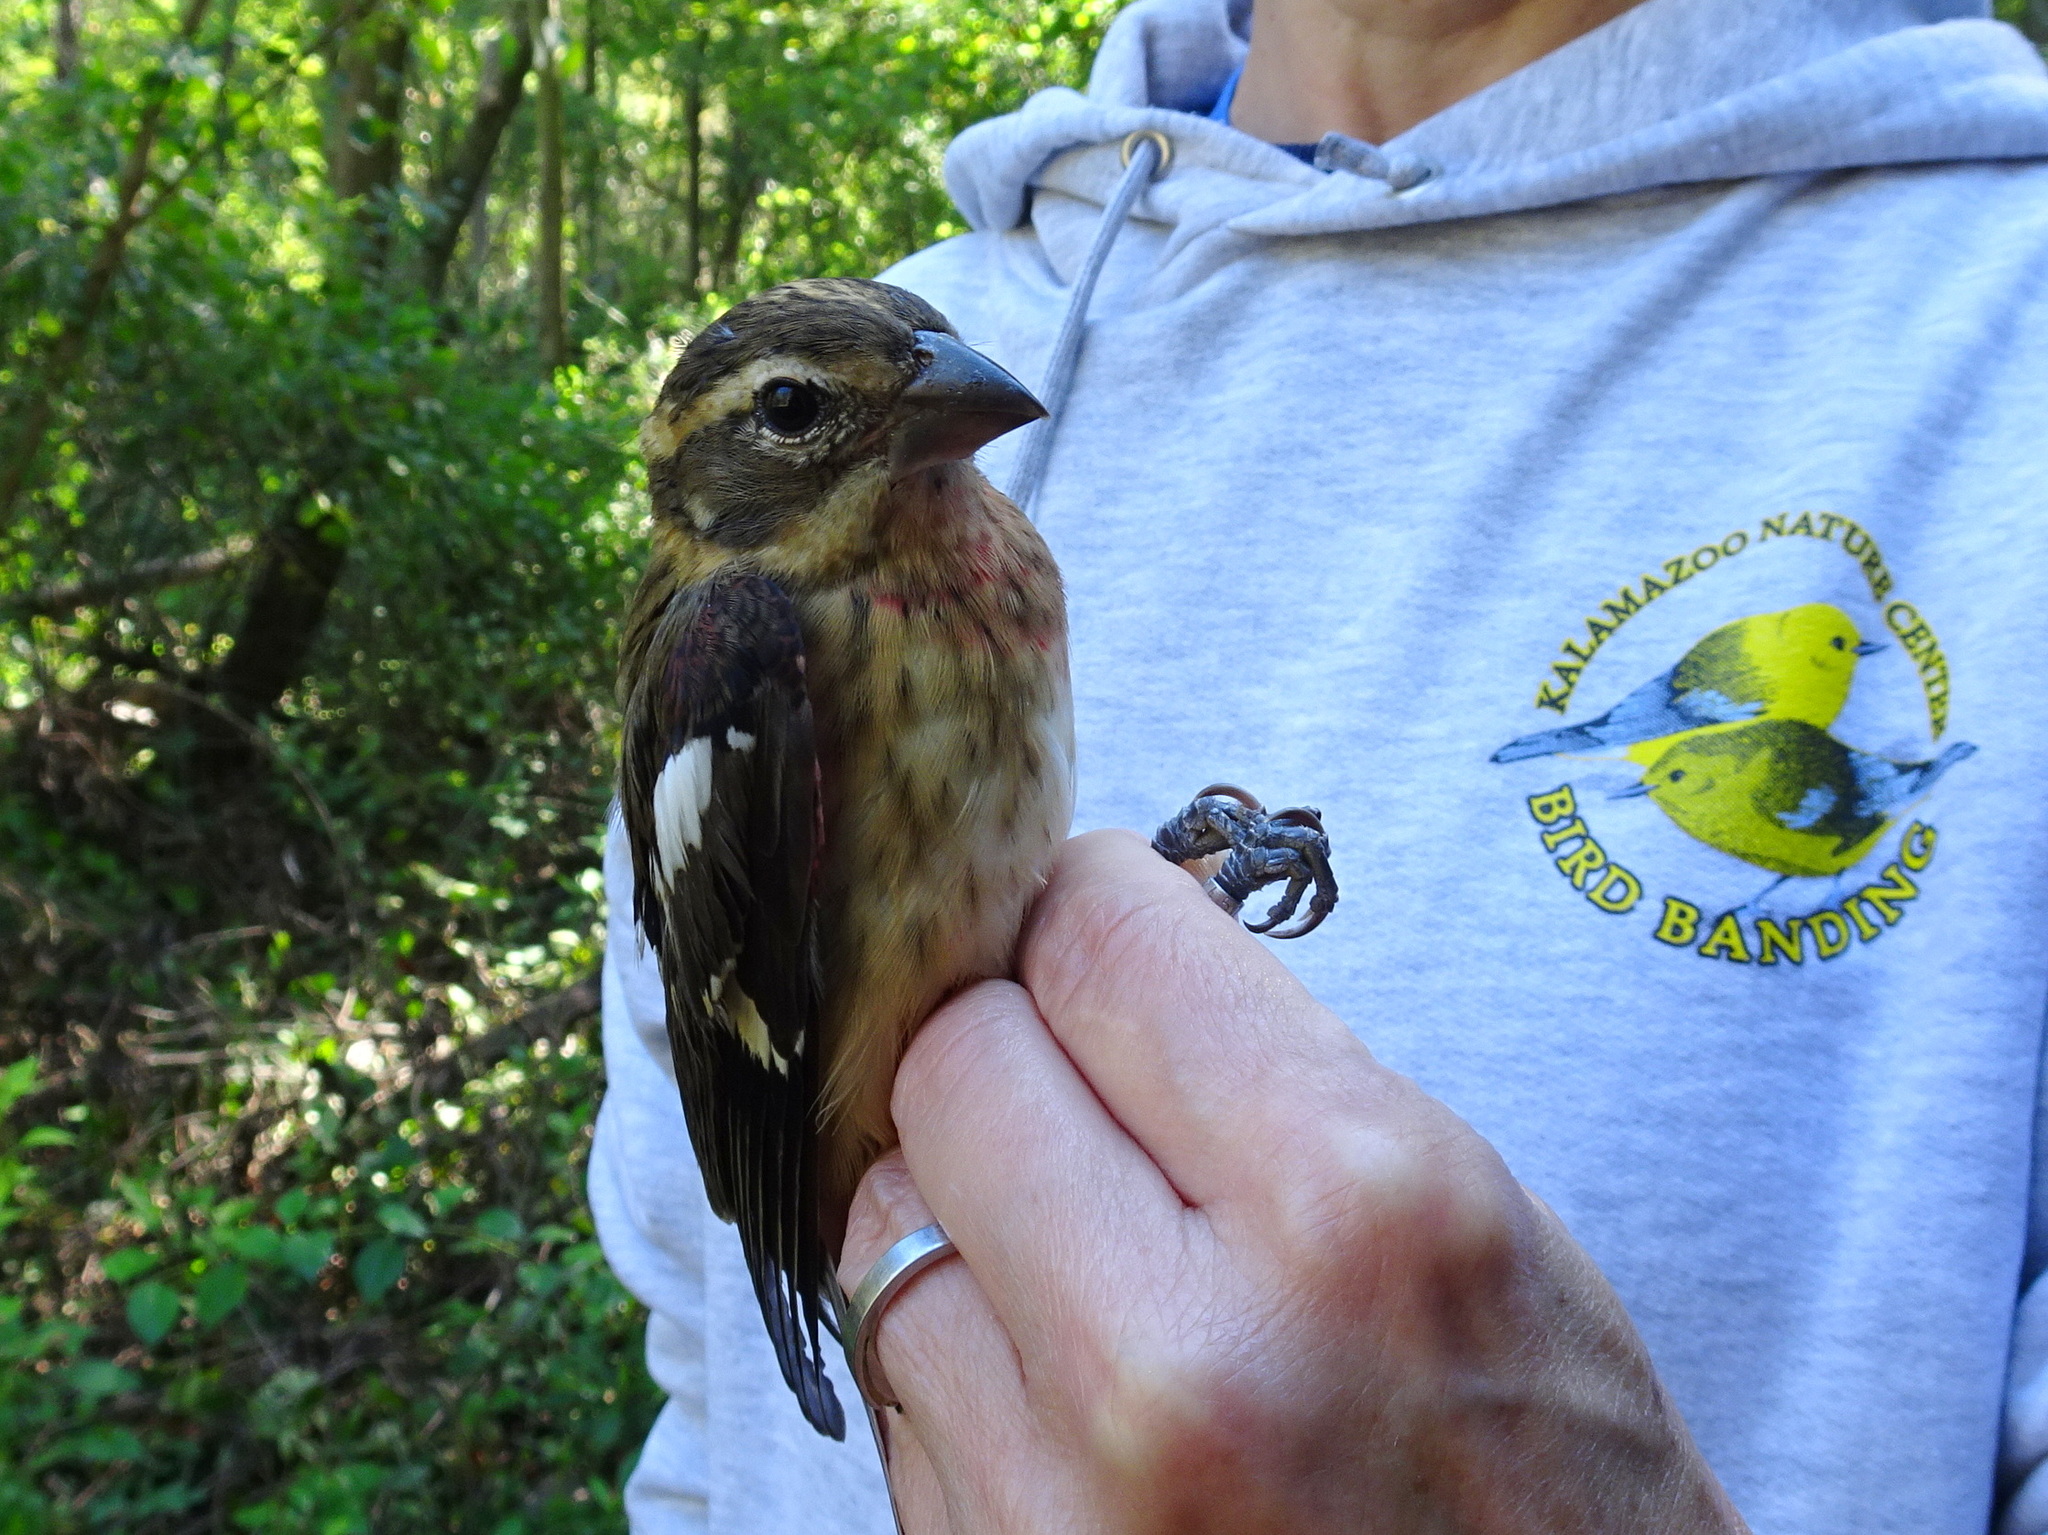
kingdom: Animalia
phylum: Chordata
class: Aves
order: Passeriformes
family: Cardinalidae
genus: Pheucticus
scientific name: Pheucticus ludovicianus
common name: Rose-breasted grosbeak
